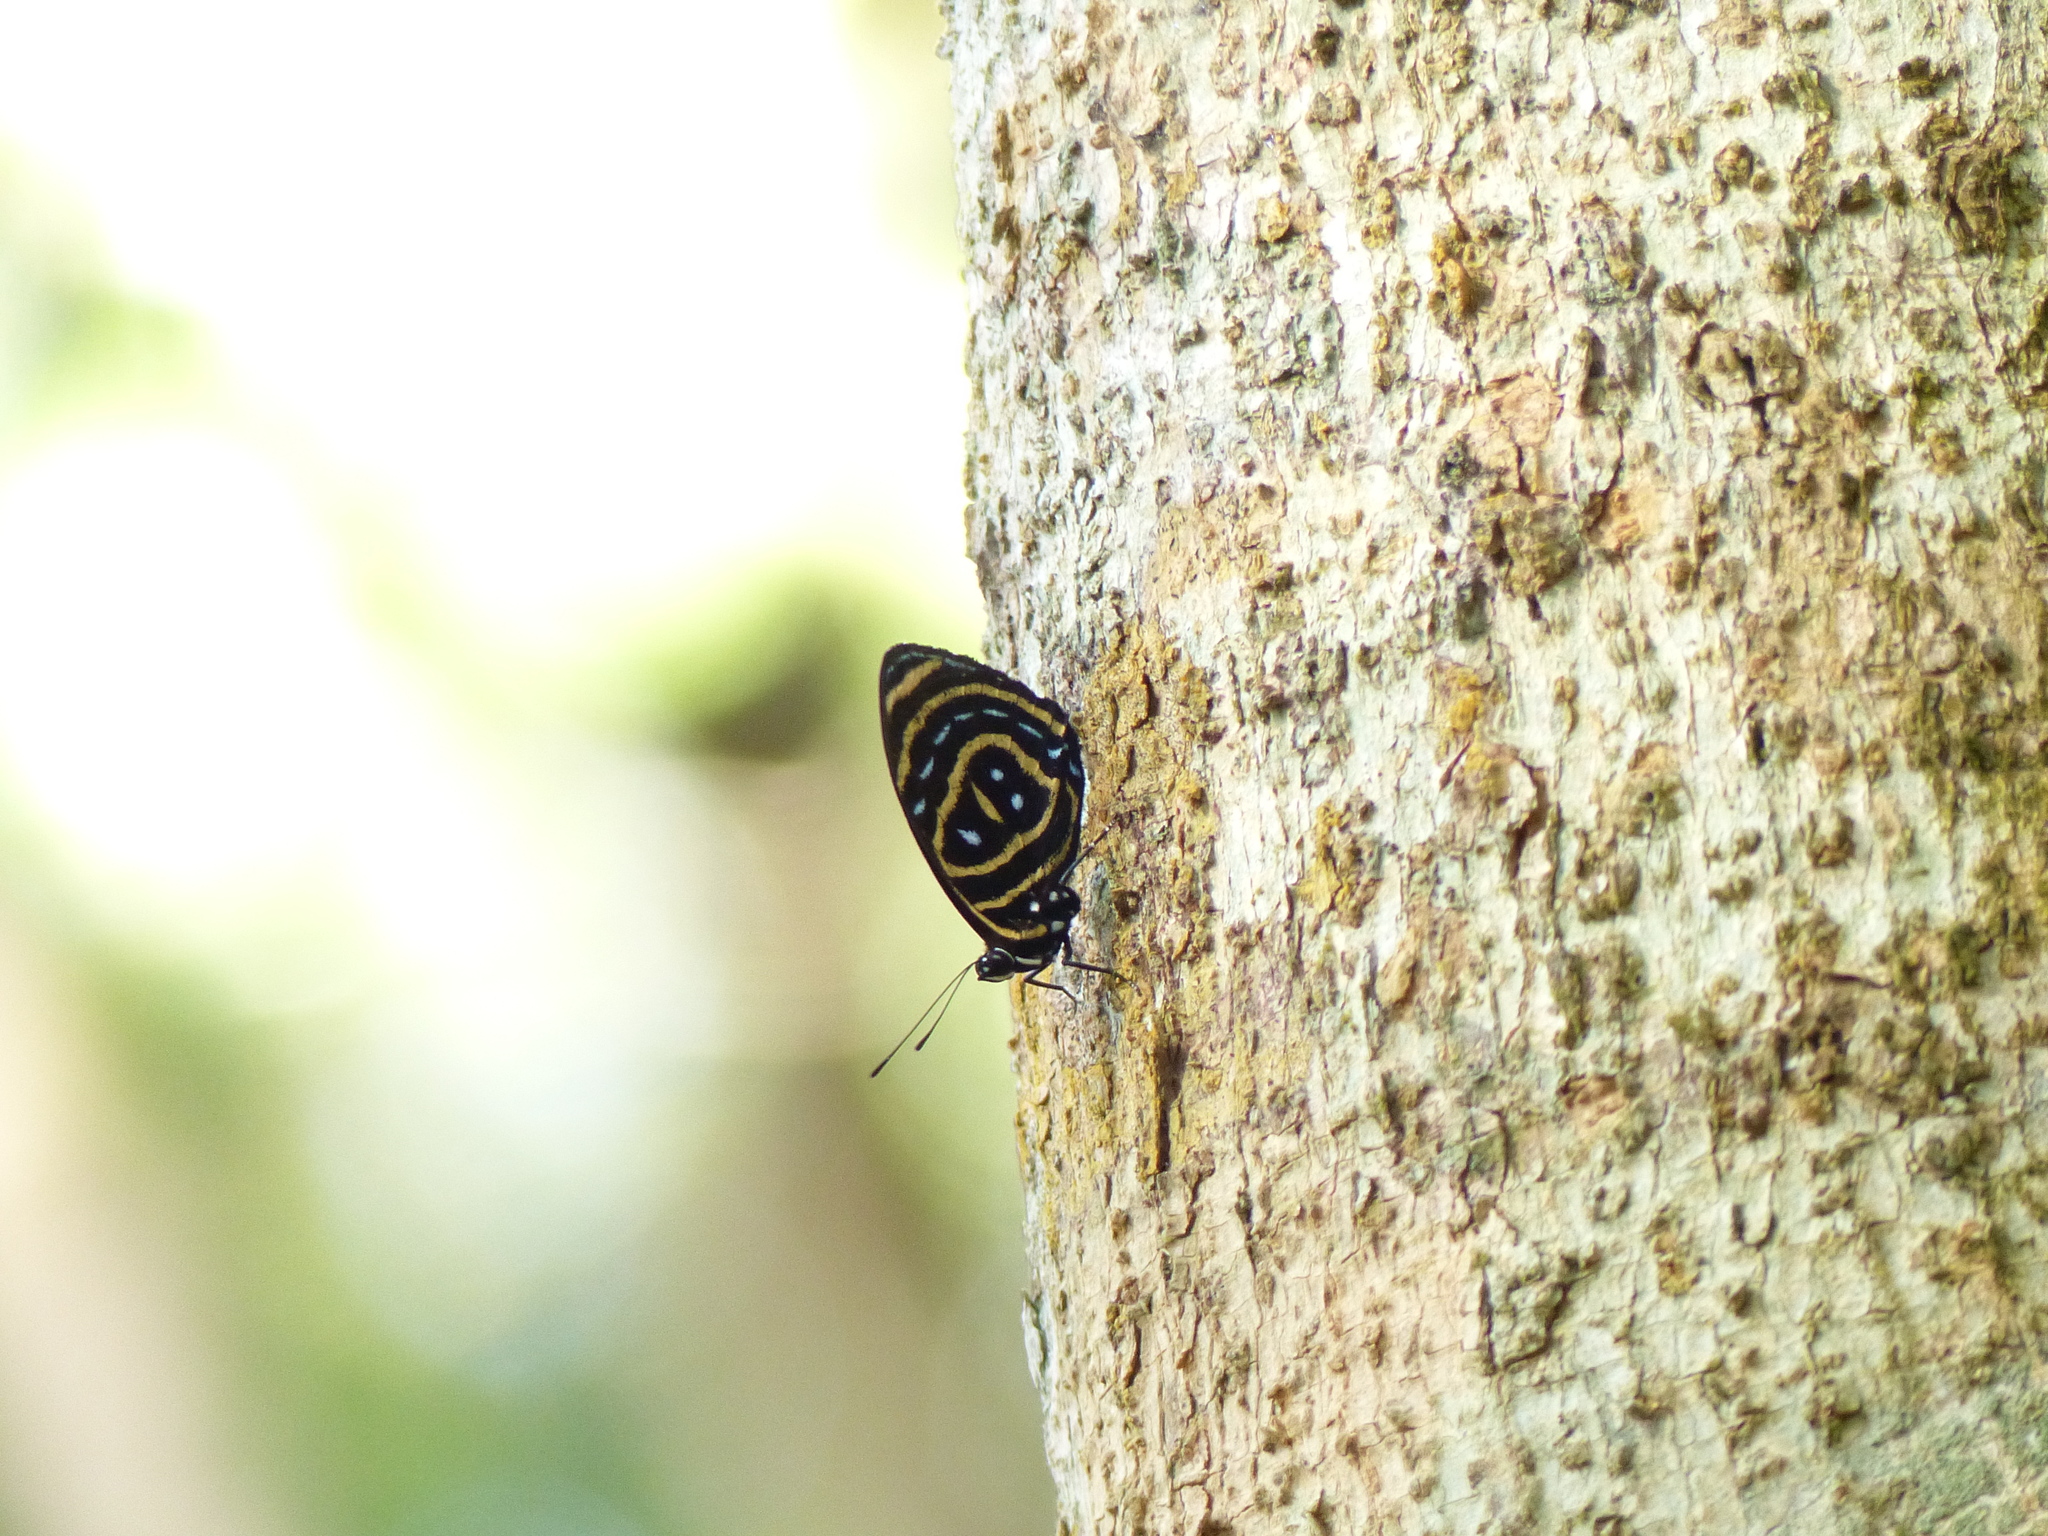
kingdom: Animalia
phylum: Arthropoda
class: Insecta
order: Lepidoptera
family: Nymphalidae
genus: Catagramma
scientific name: Catagramma astarte
